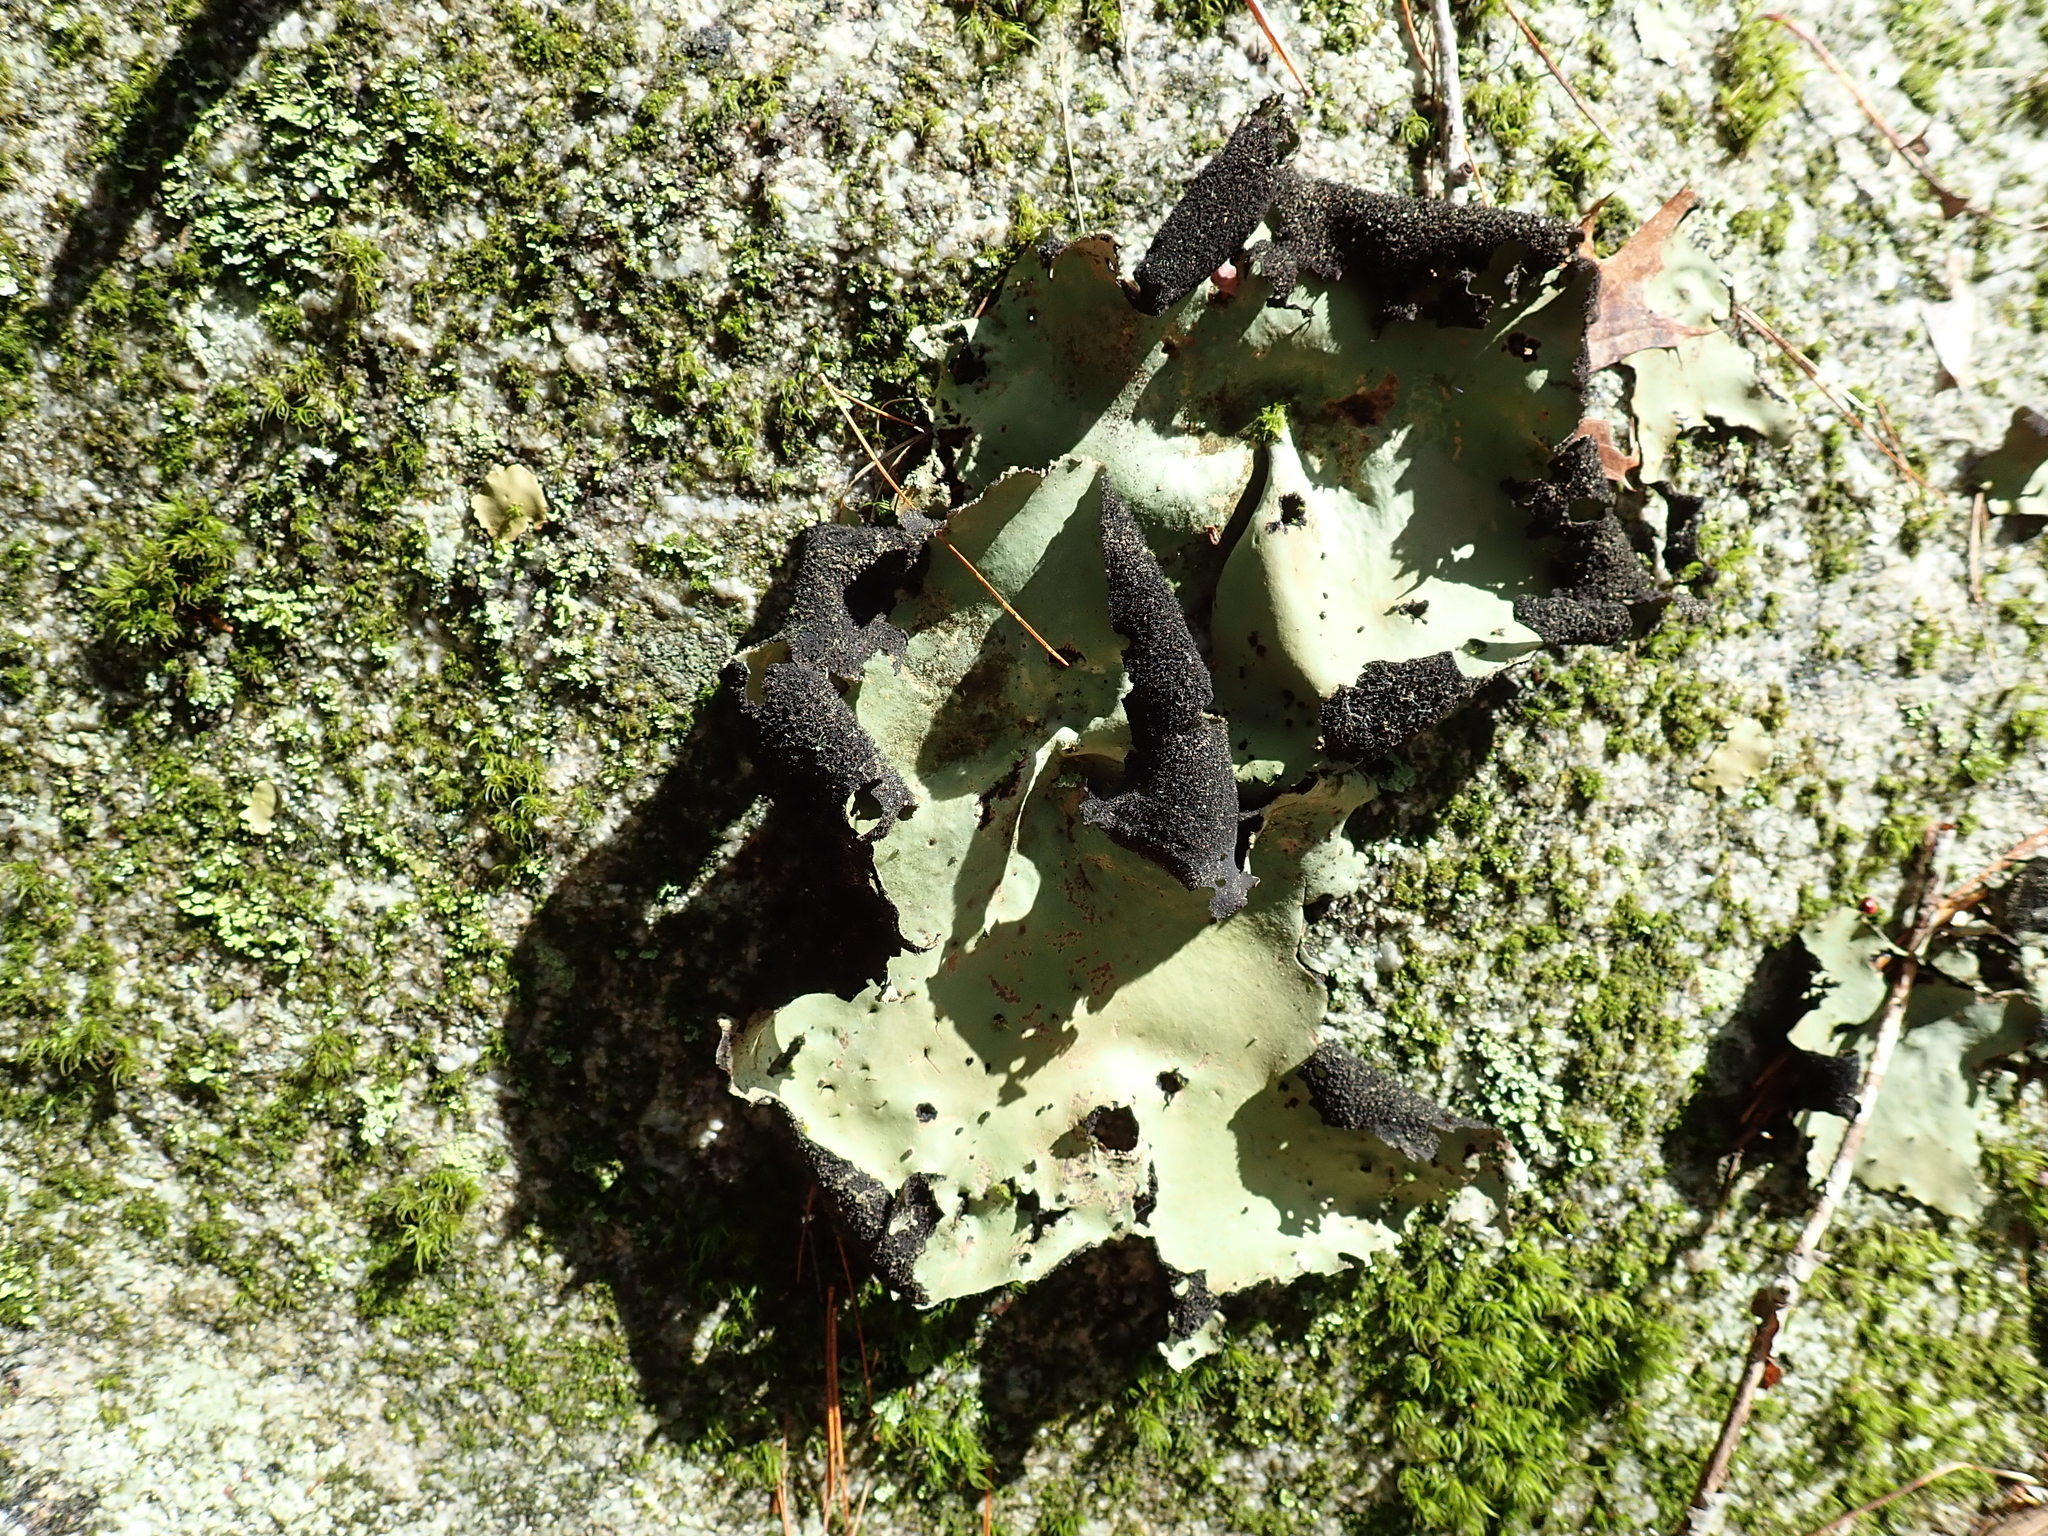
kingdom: Fungi
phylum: Ascomycota
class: Lecanoromycetes
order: Umbilicariales
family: Umbilicariaceae
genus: Umbilicaria
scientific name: Umbilicaria mammulata
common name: Smooth rock tripe
